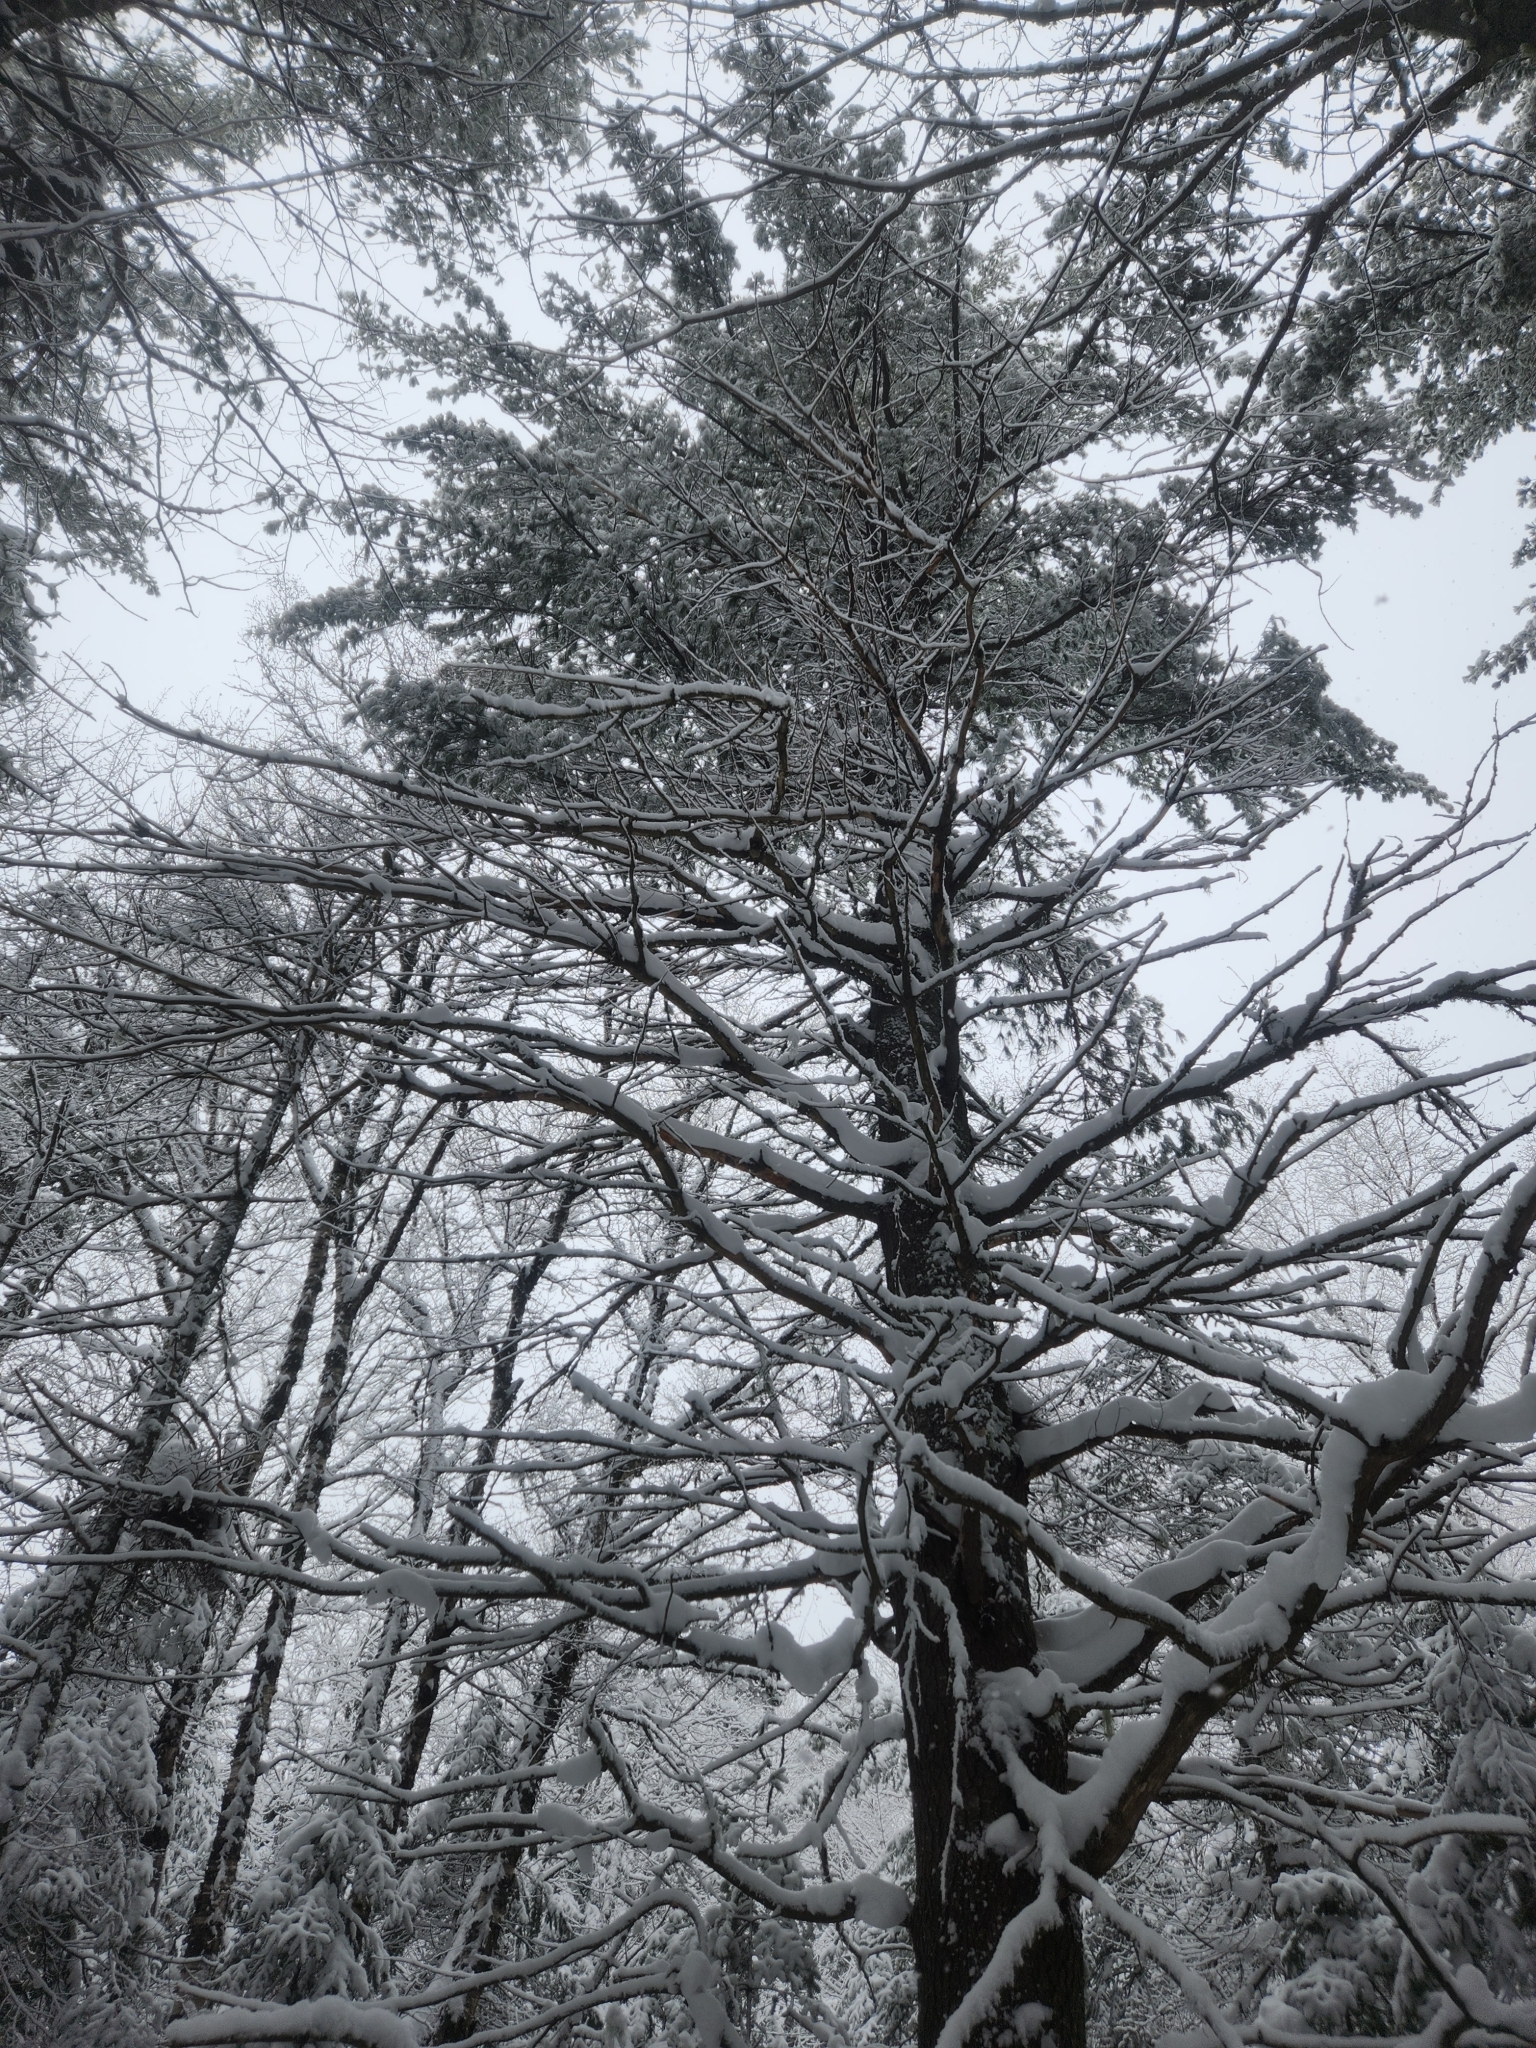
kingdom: Plantae
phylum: Tracheophyta
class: Pinopsida
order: Pinales
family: Pinaceae
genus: Pinus
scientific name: Pinus strobus
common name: Weymouth pine
